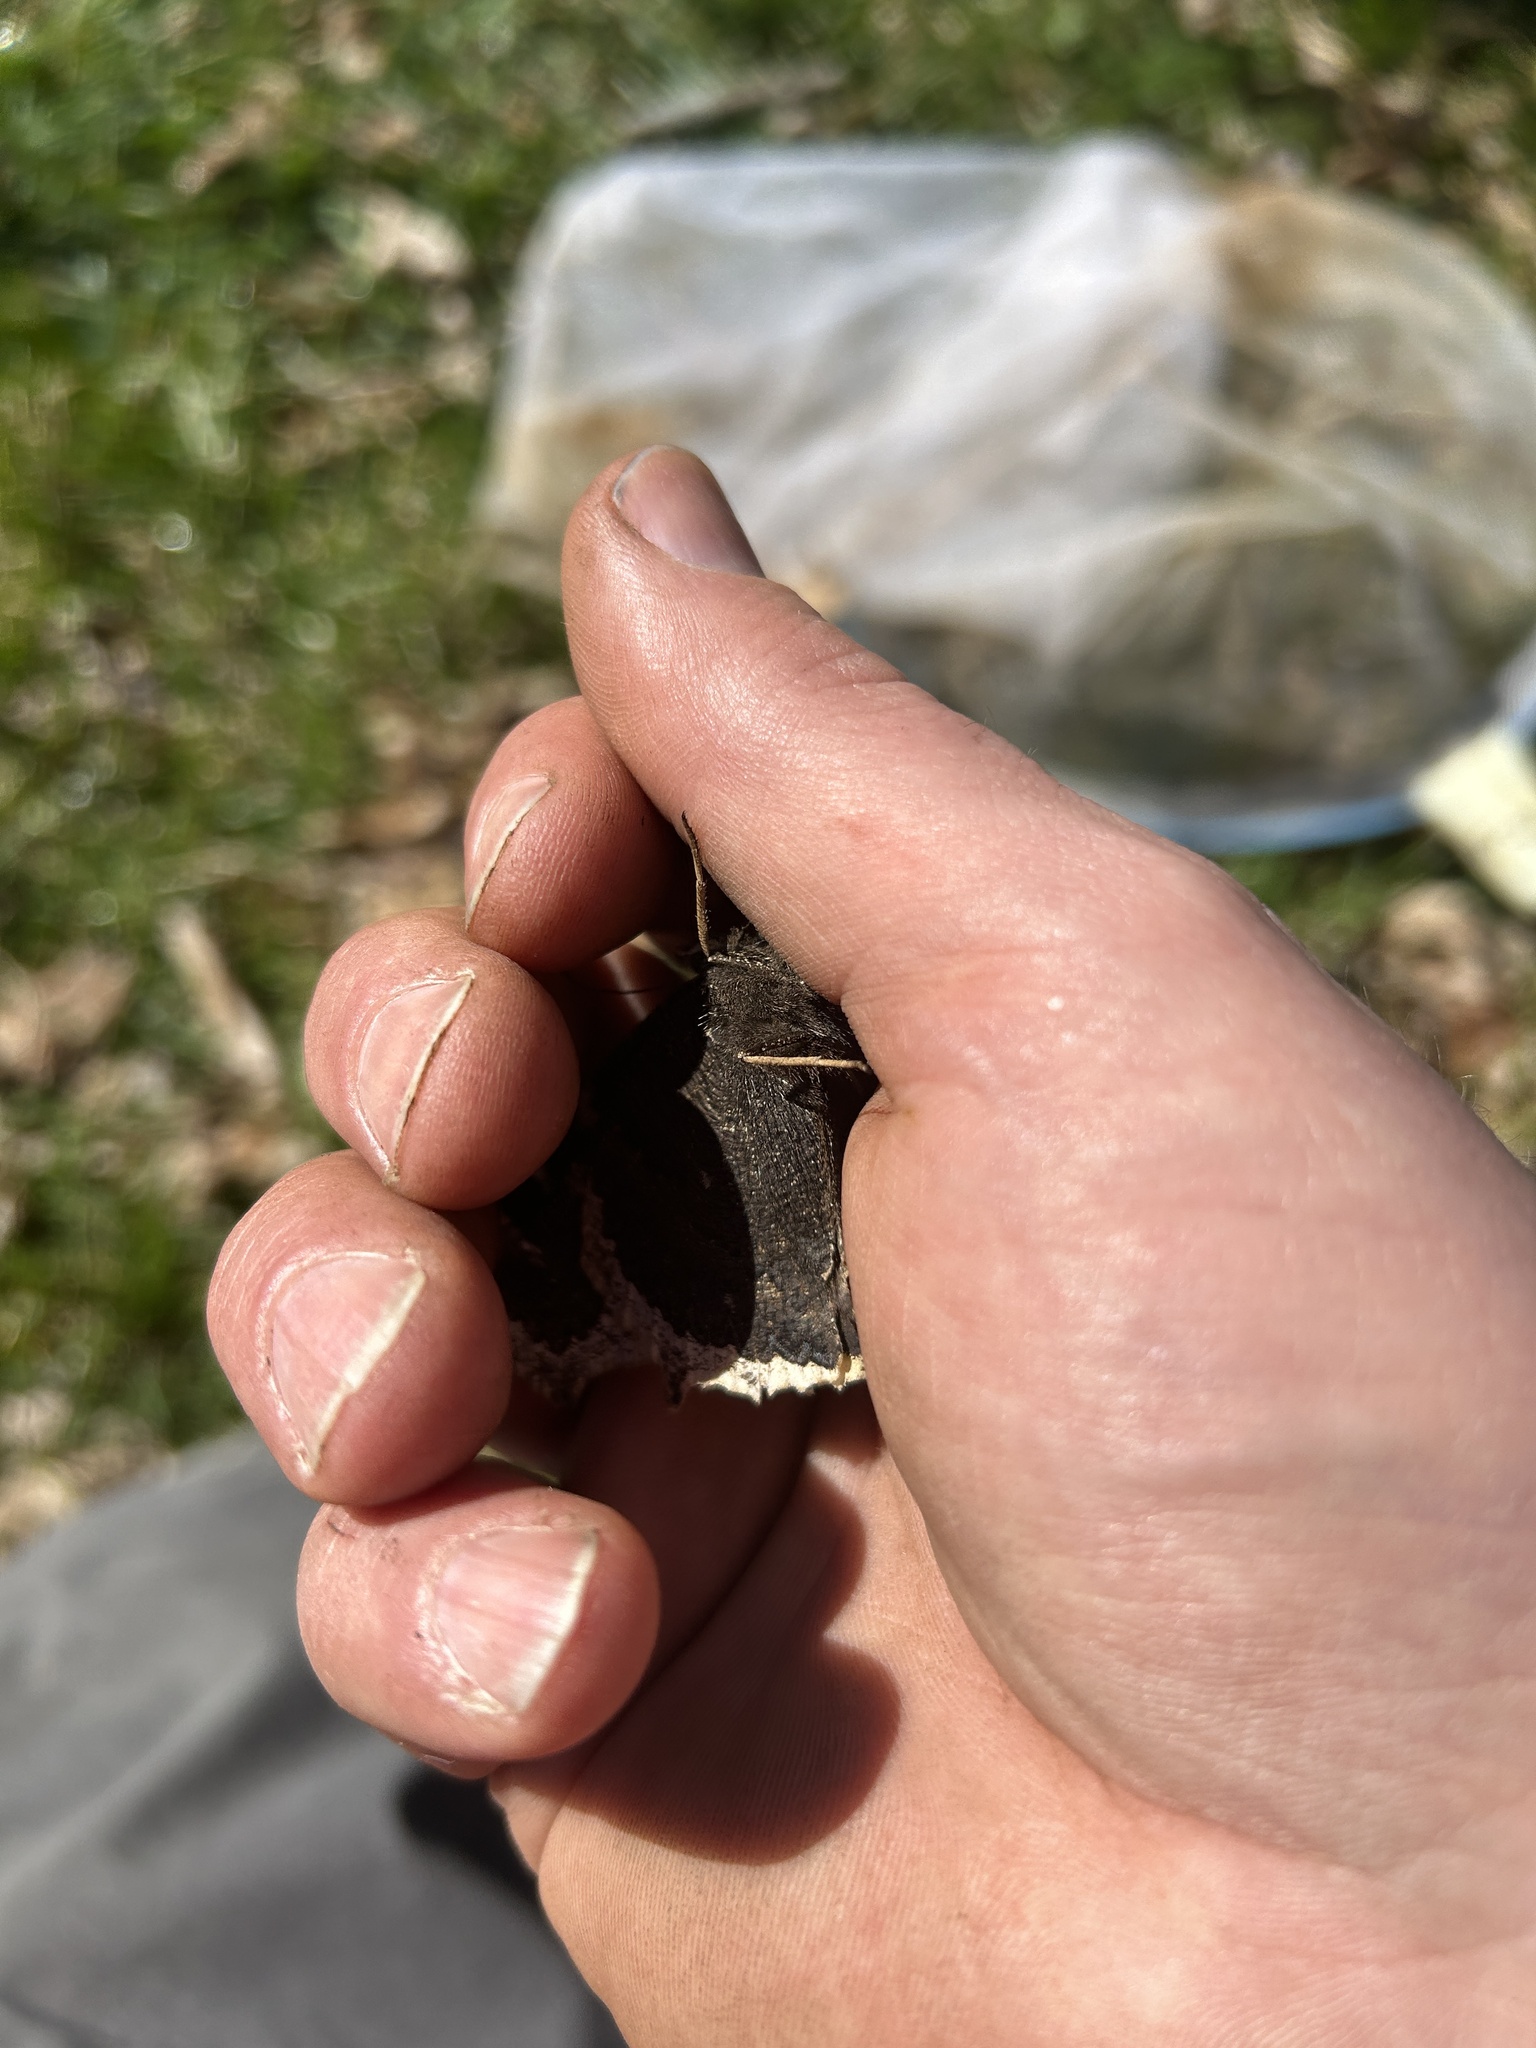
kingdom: Animalia
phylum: Arthropoda
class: Insecta
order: Lepidoptera
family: Nymphalidae
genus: Nymphalis
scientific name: Nymphalis antiopa
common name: Camberwell beauty
